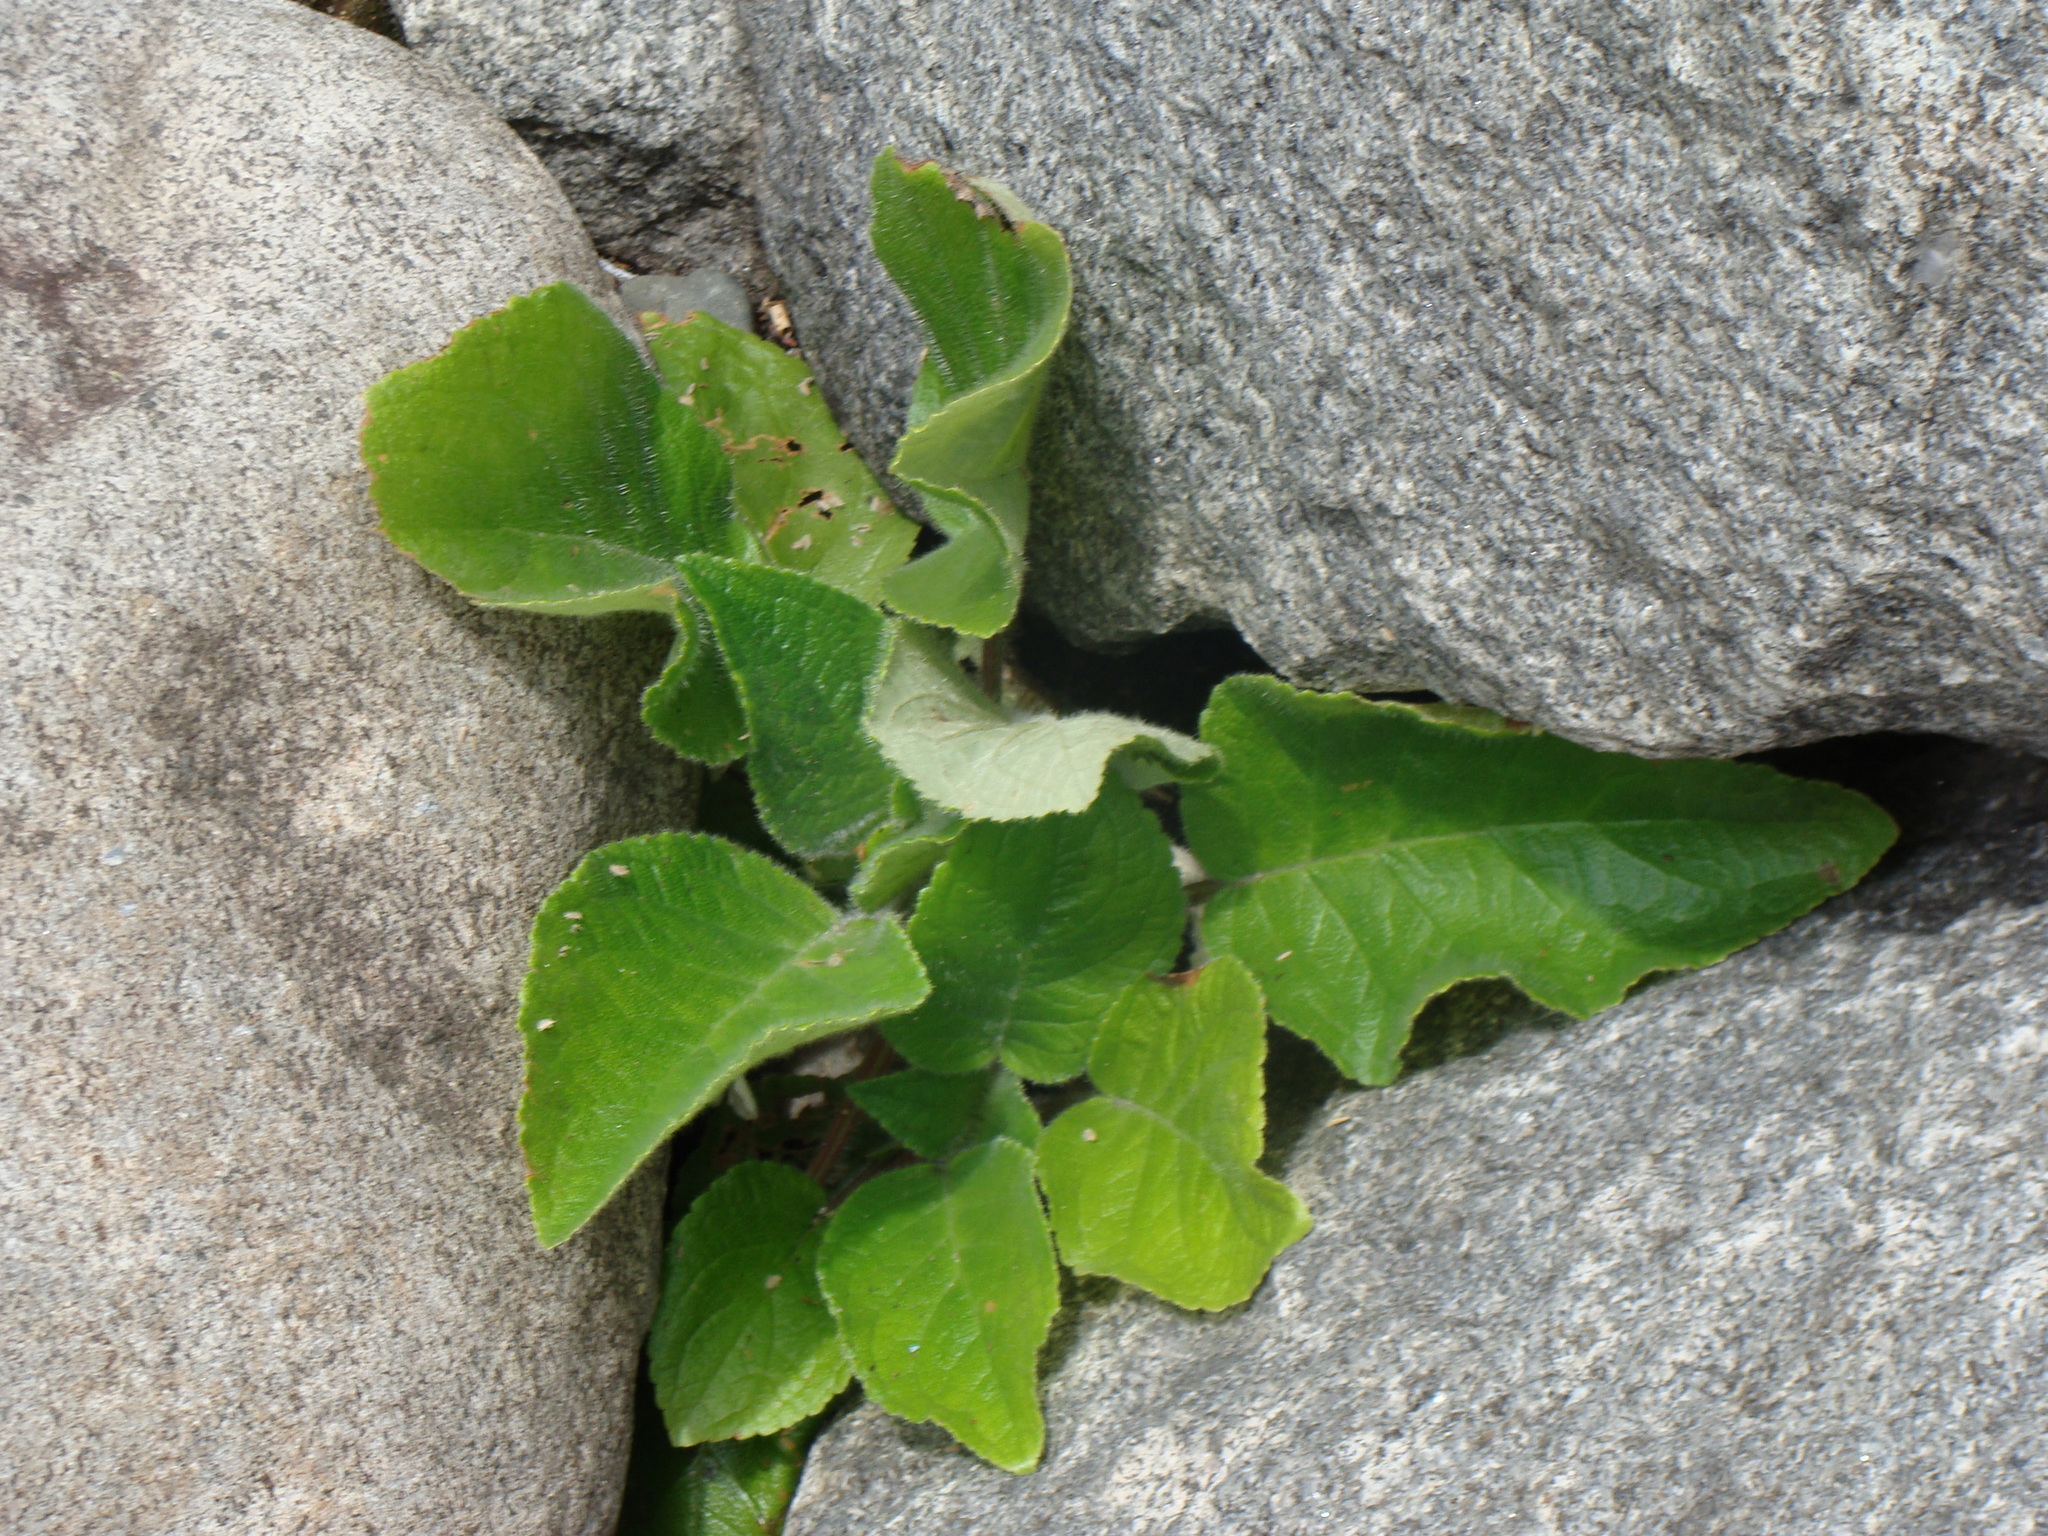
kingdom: Plantae
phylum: Tracheophyta
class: Magnoliopsida
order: Lamiales
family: Gesneriaceae
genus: Chrysothemis
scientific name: Chrysothemis panamensis
